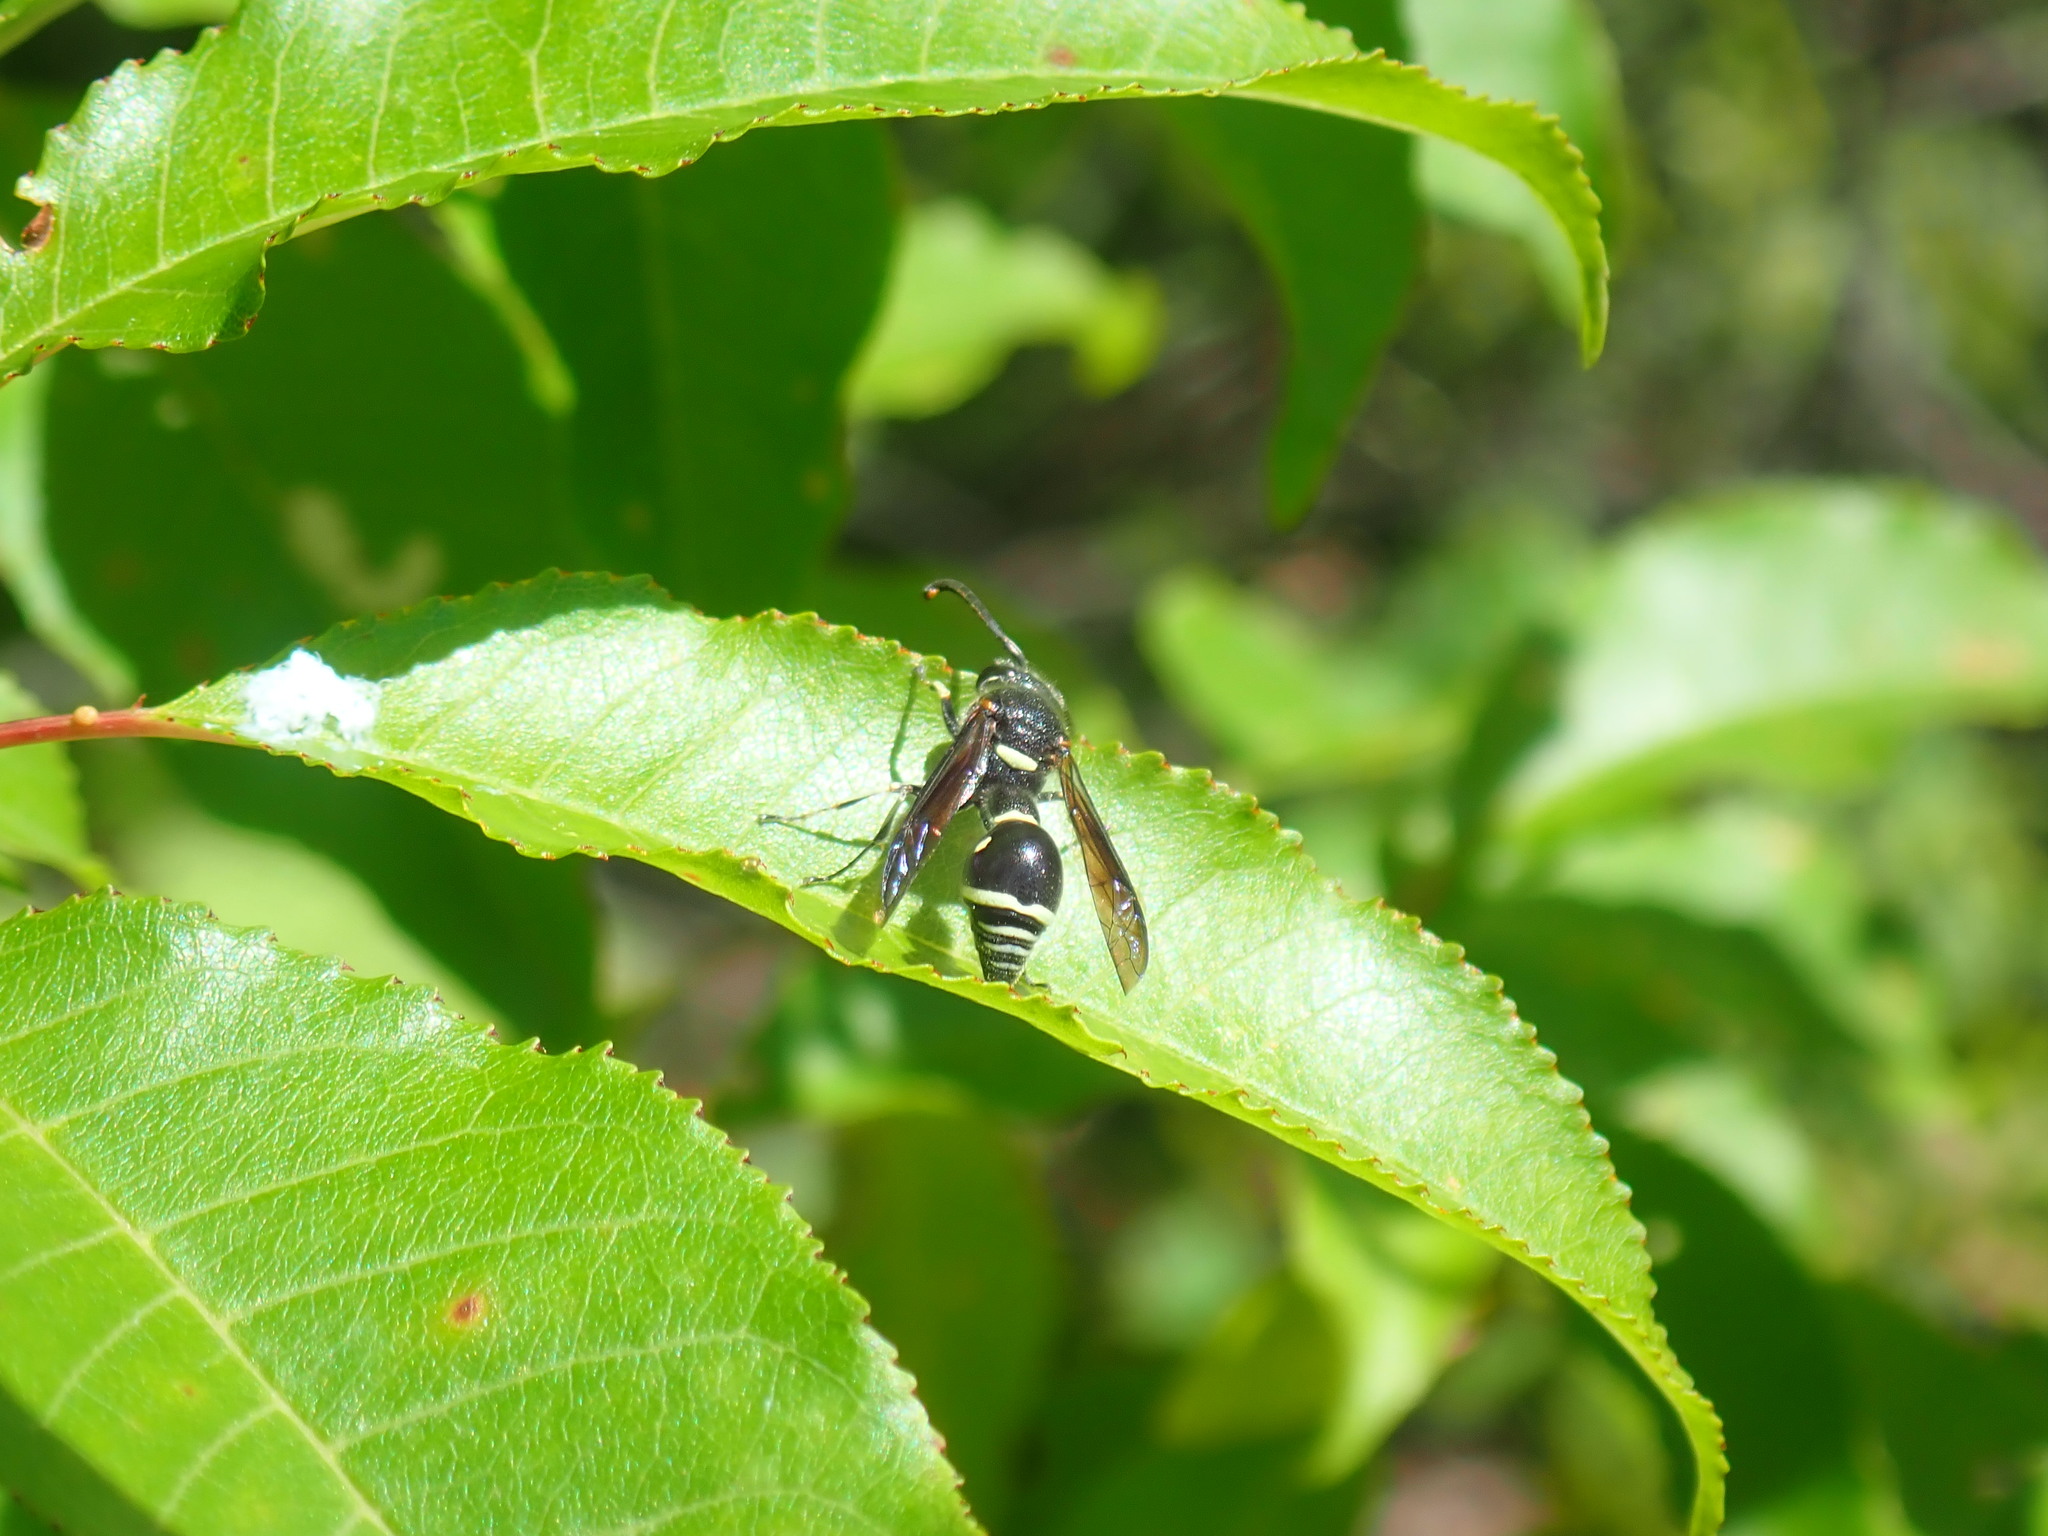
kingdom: Animalia
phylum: Arthropoda
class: Insecta
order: Hymenoptera
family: Vespidae
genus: Eumenes
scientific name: Eumenes fraternus
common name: Fraternal potter wasp
